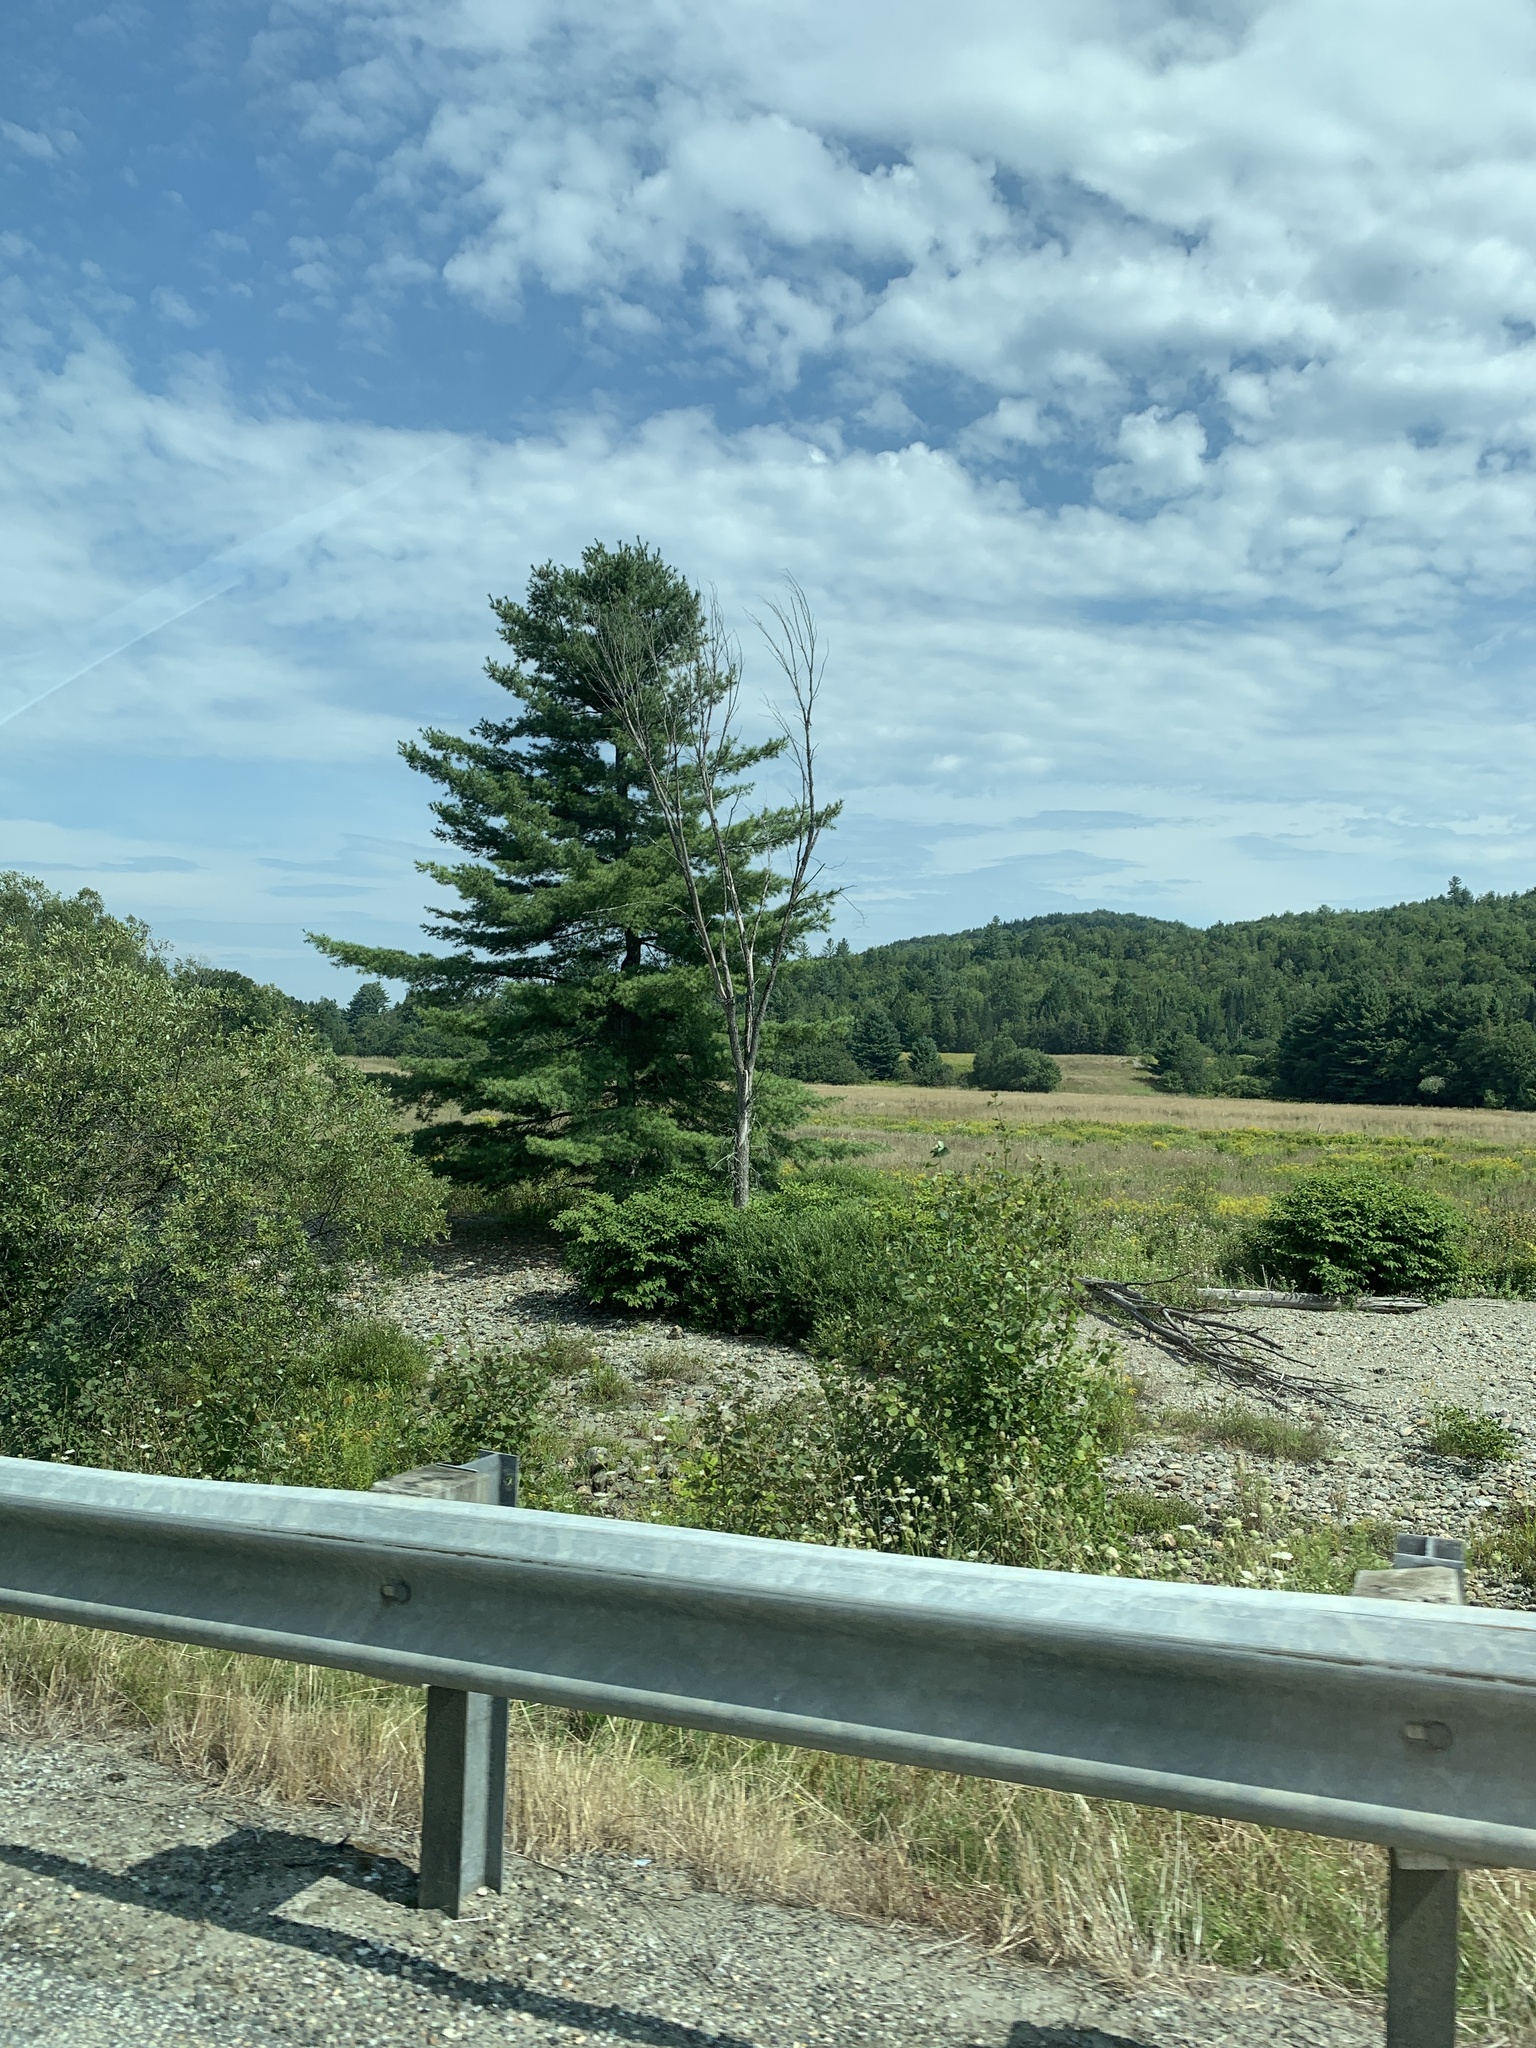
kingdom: Plantae
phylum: Tracheophyta
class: Pinopsida
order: Pinales
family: Pinaceae
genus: Pinus
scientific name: Pinus strobus
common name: Weymouth pine
